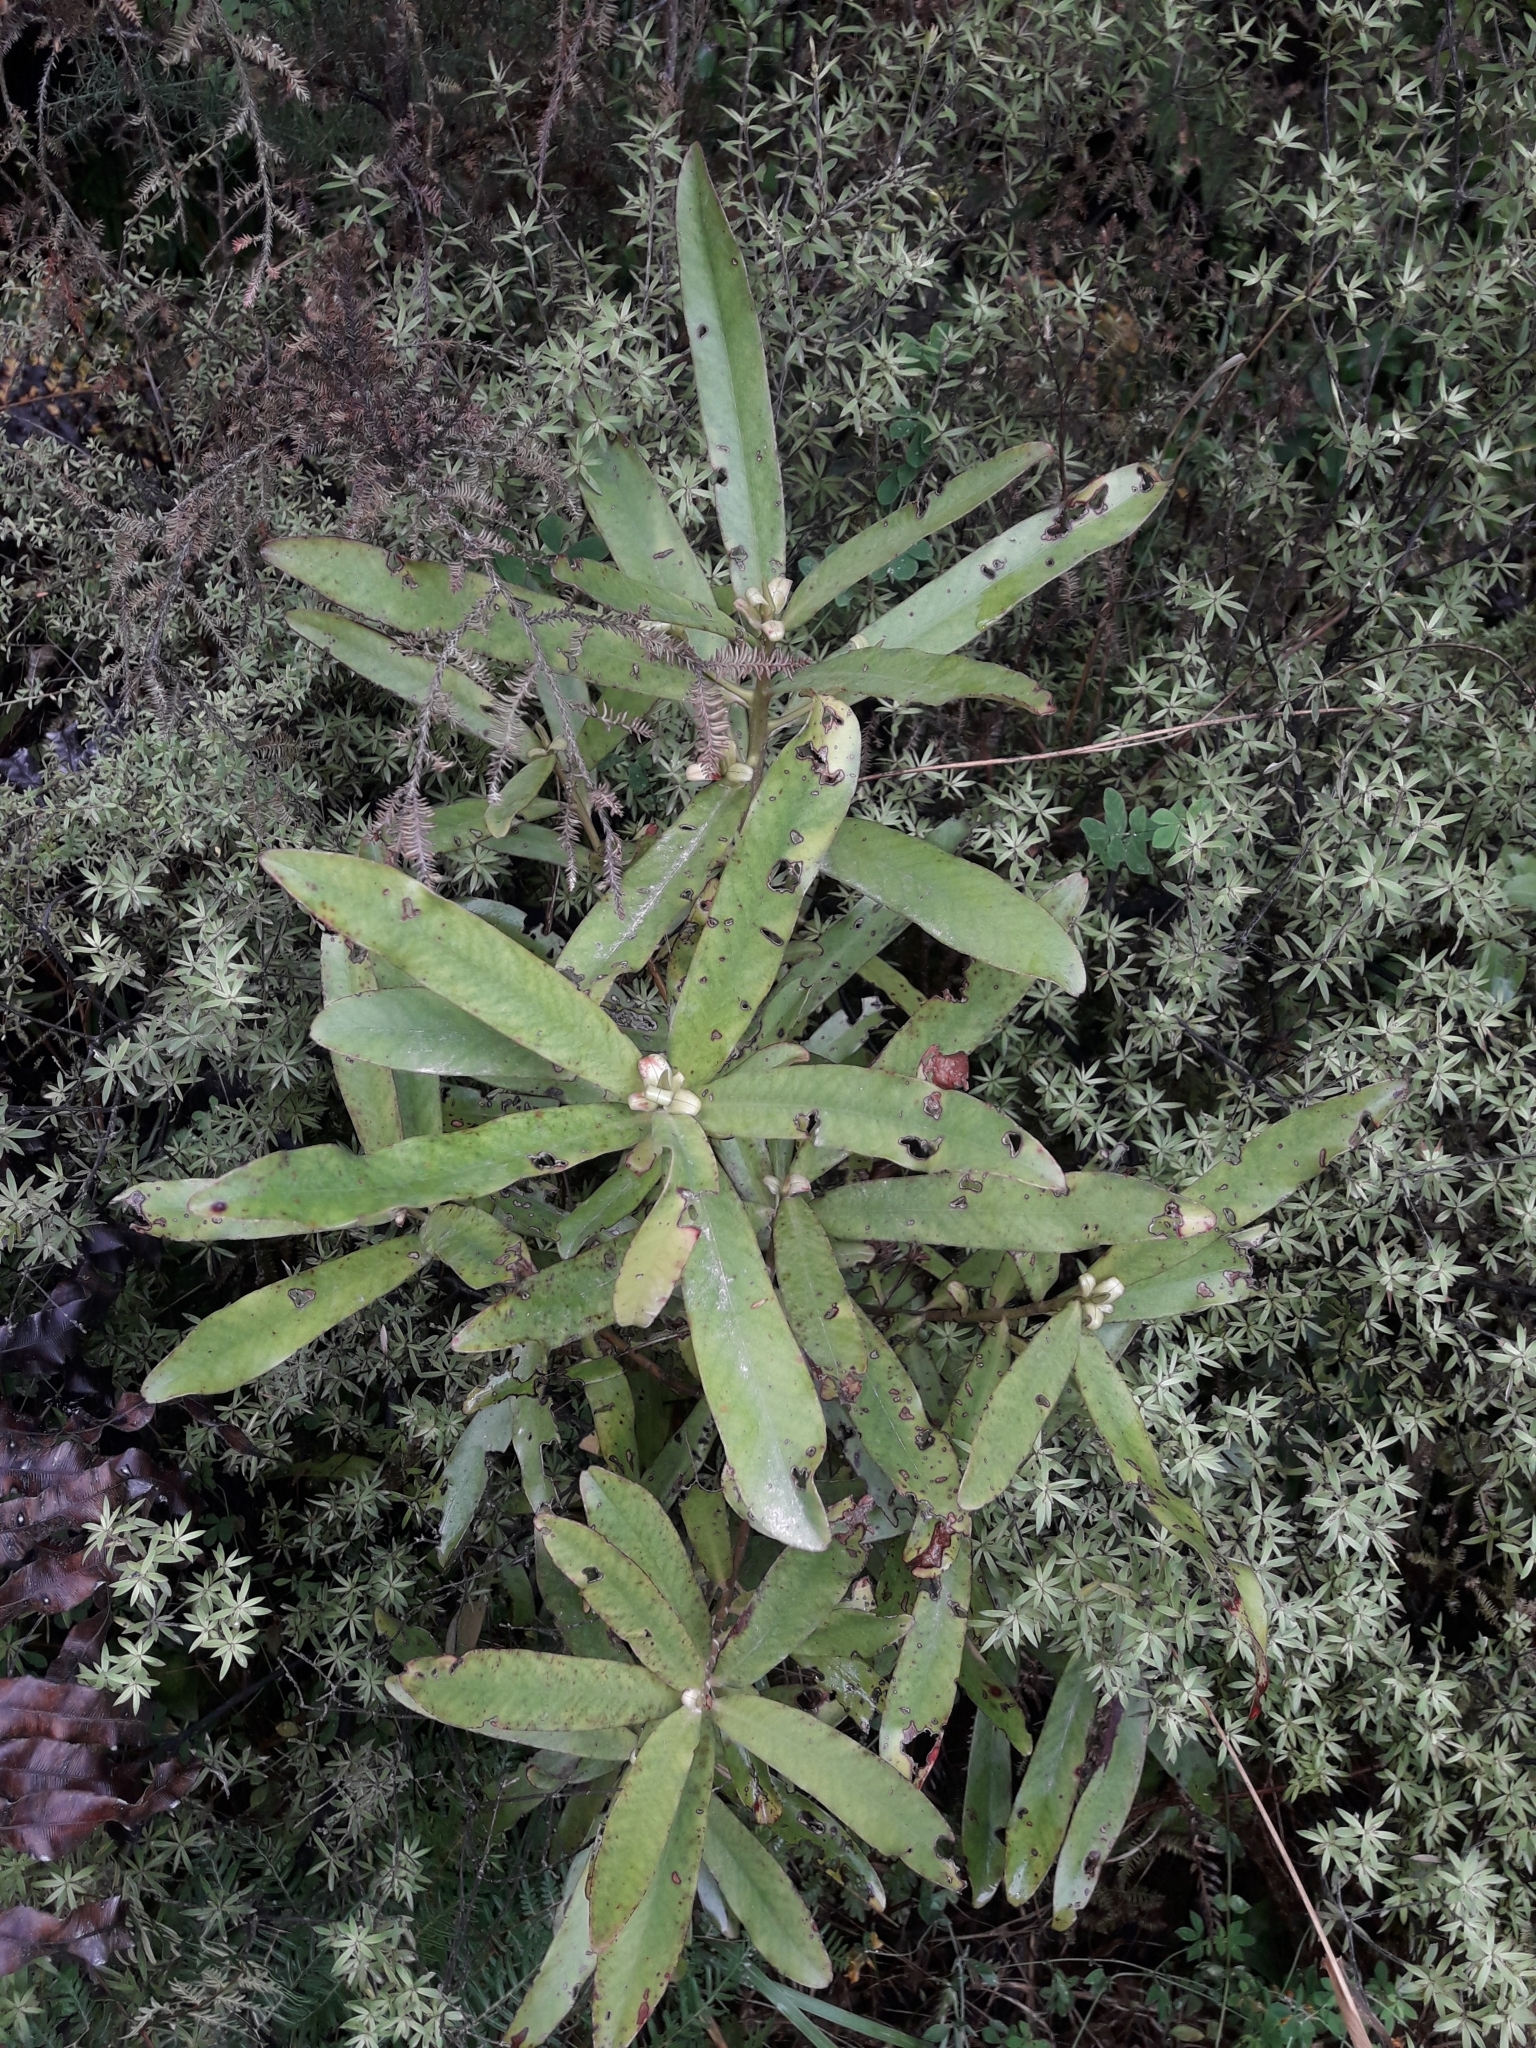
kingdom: Plantae
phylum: Tracheophyta
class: Magnoliopsida
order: Ericales
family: Primulaceae
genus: Myrsine
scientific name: Myrsine salicina
